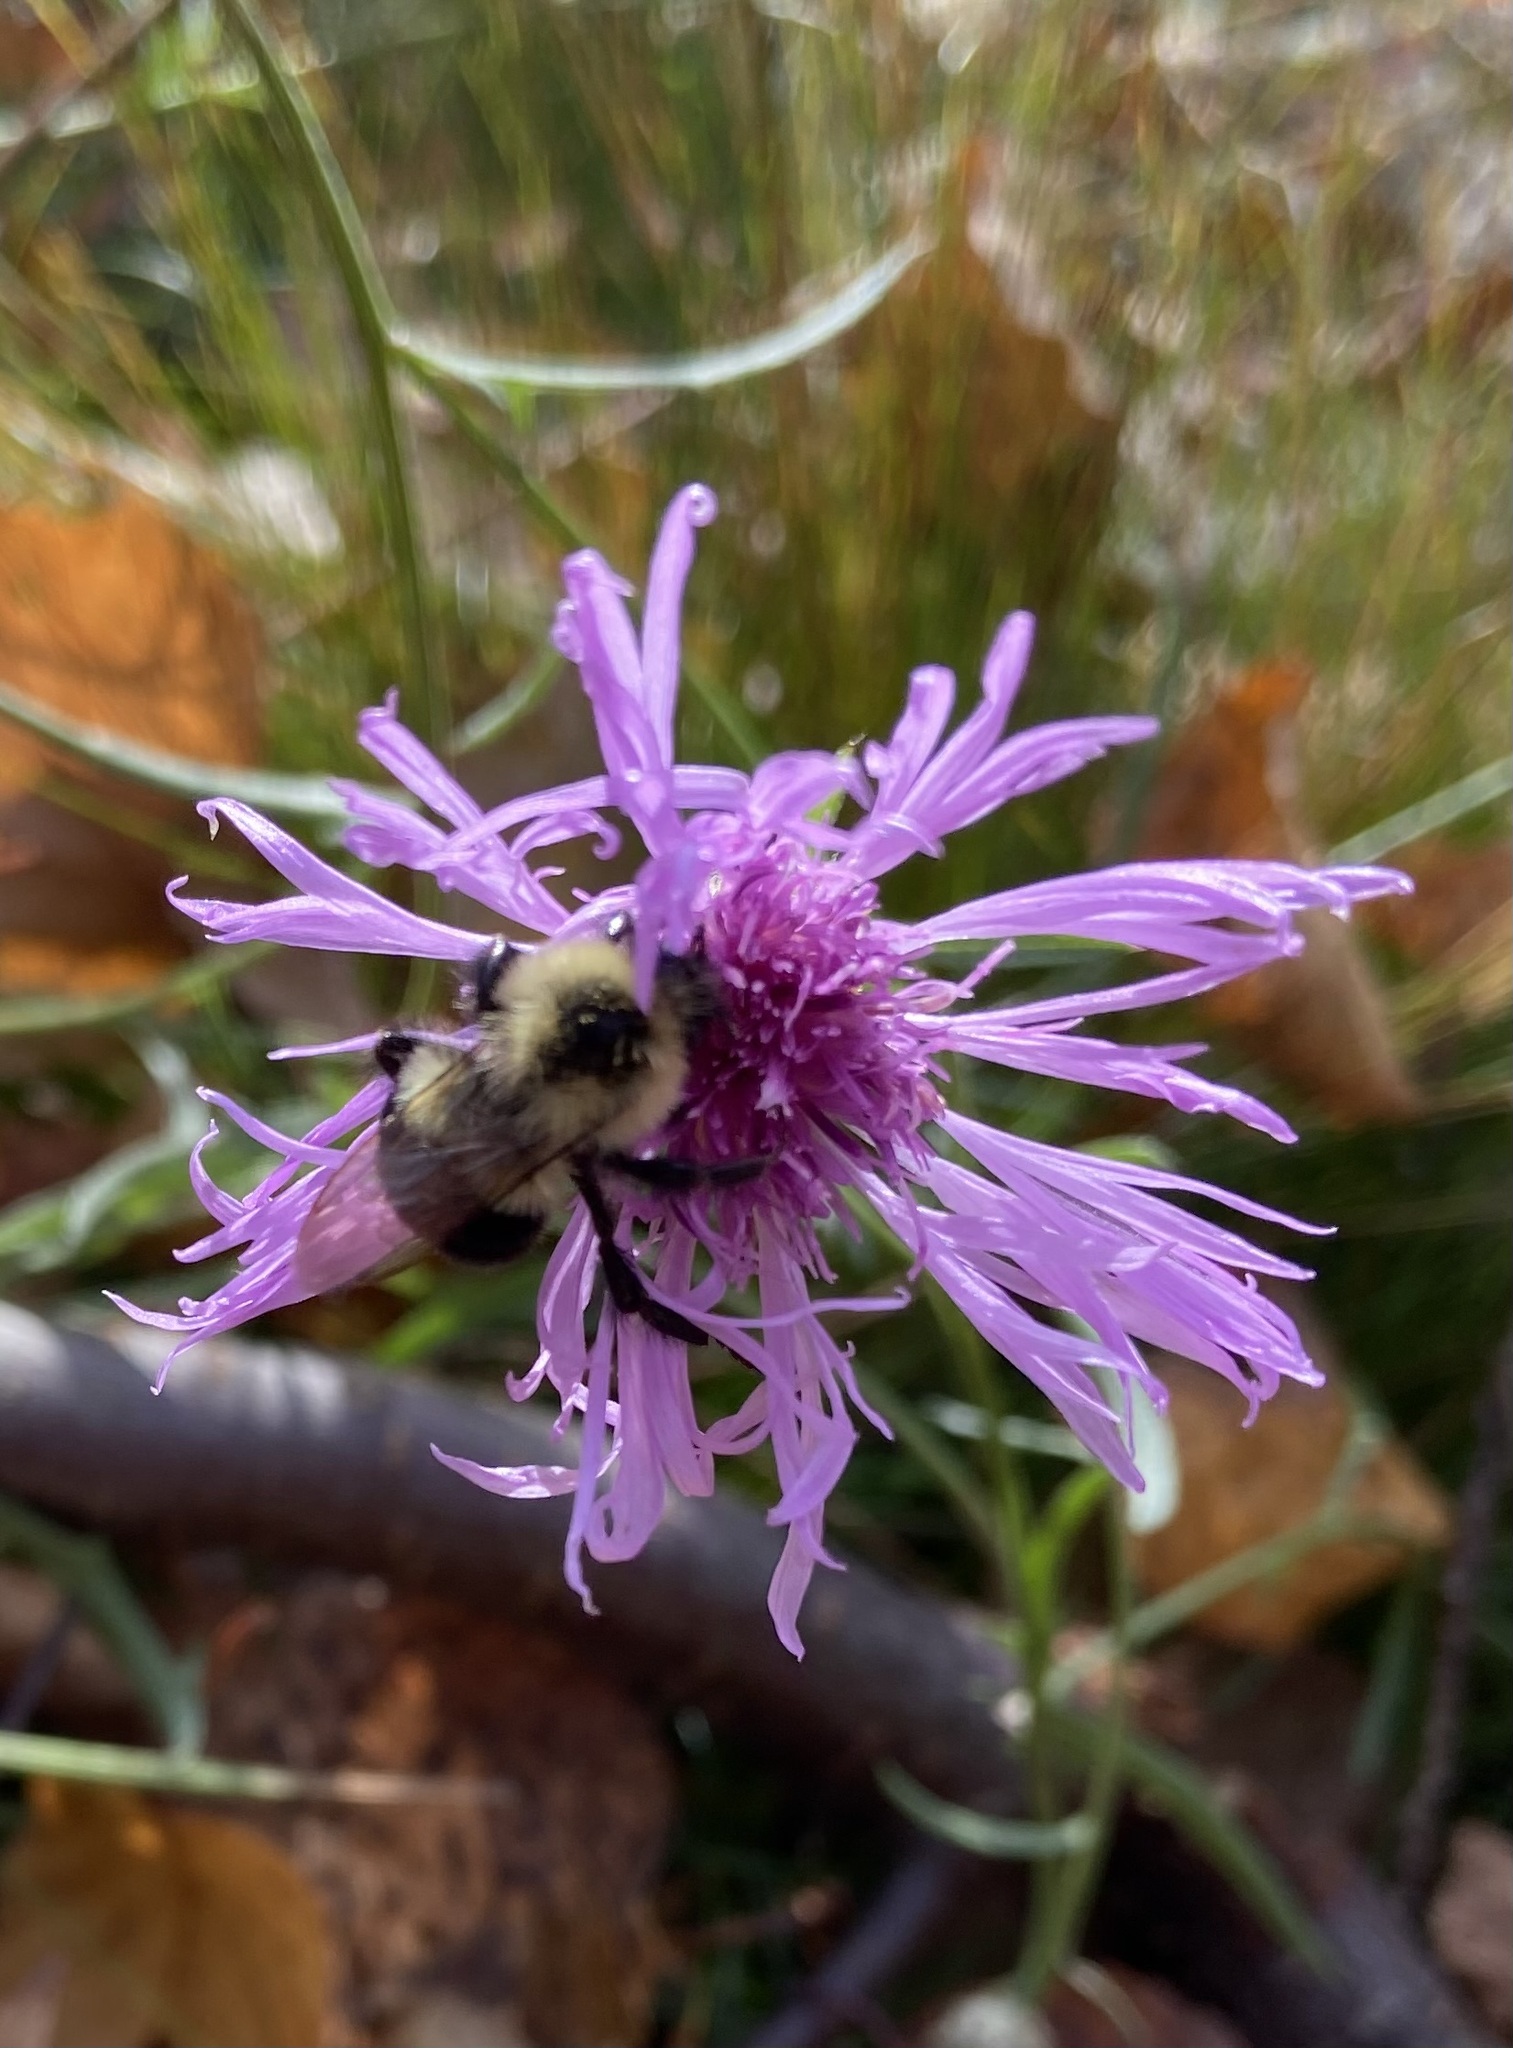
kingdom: Animalia
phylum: Arthropoda
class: Insecta
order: Hymenoptera
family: Apidae
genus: Bombus
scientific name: Bombus impatiens
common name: Common eastern bumble bee
